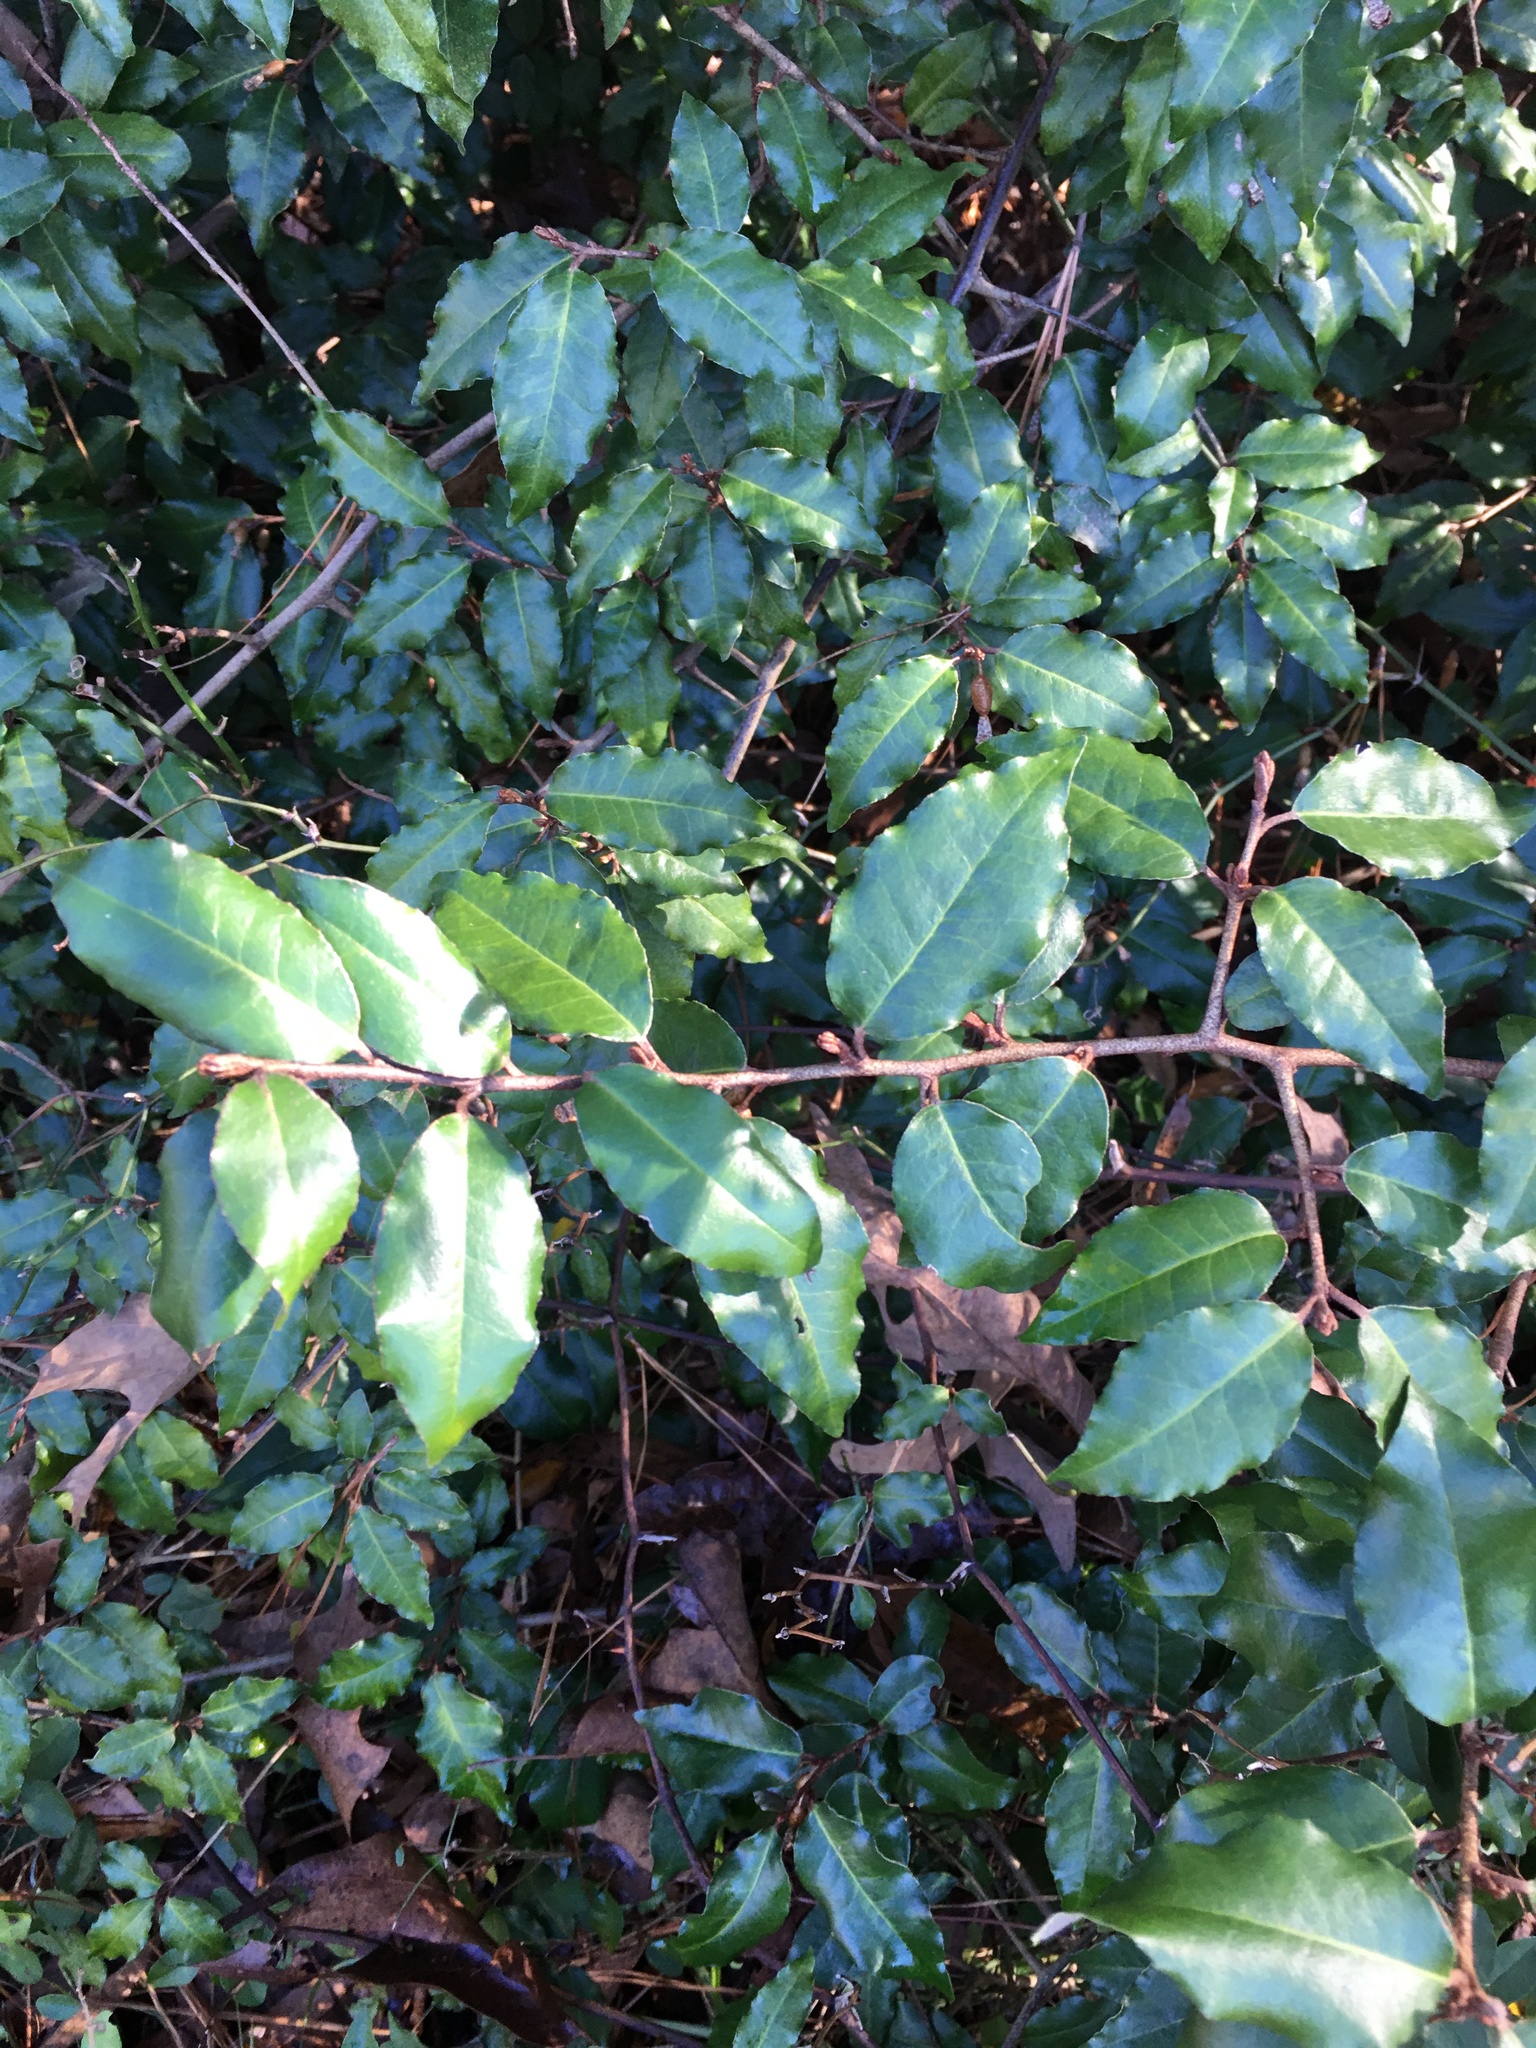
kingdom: Plantae
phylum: Tracheophyta
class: Magnoliopsida
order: Rosales
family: Elaeagnaceae
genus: Elaeagnus
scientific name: Elaeagnus pungens
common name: Spiny oleaster
